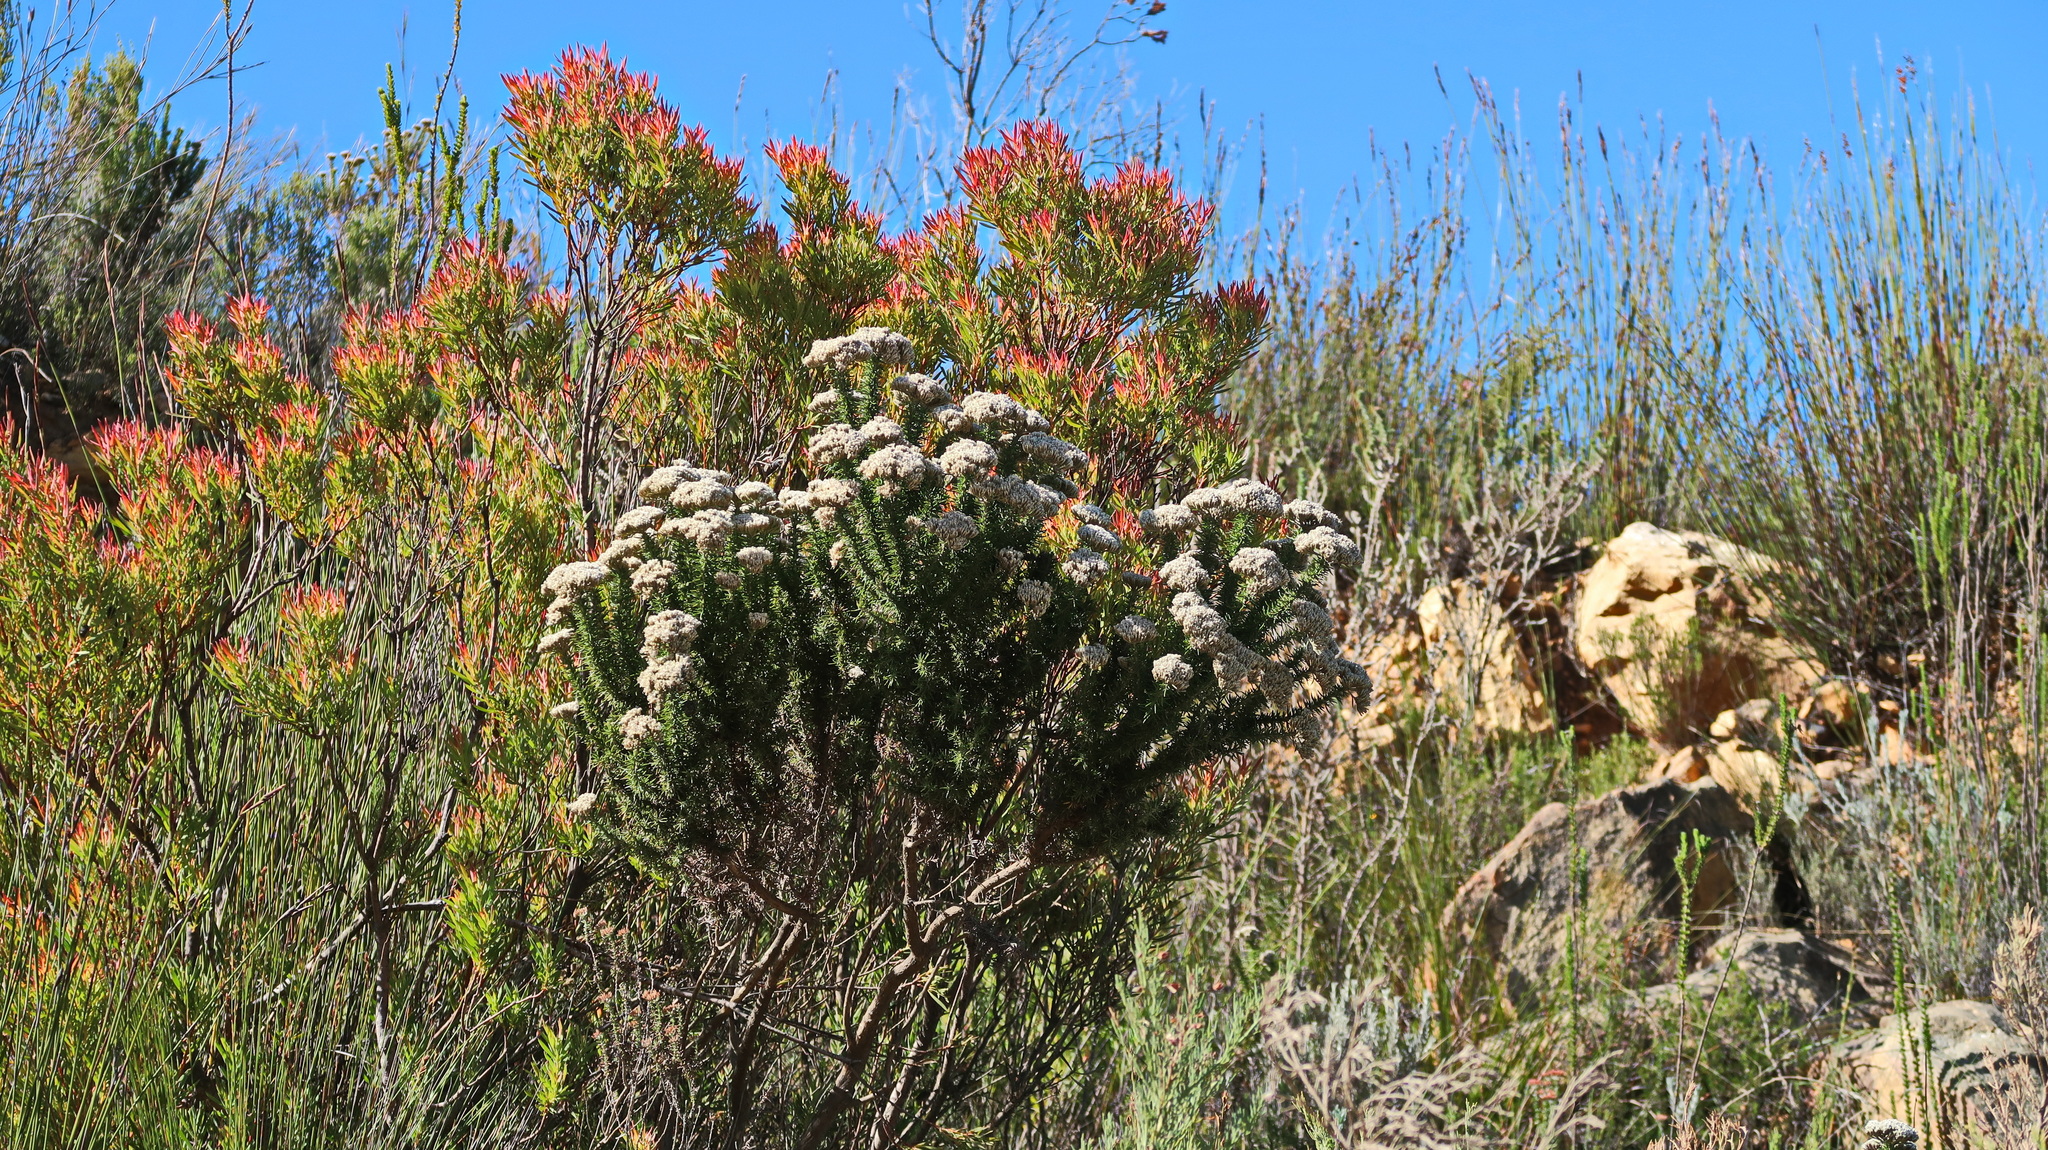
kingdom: Plantae
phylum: Tracheophyta
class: Magnoliopsida
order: Asterales
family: Asteraceae
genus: Metalasia
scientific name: Metalasia acuta
